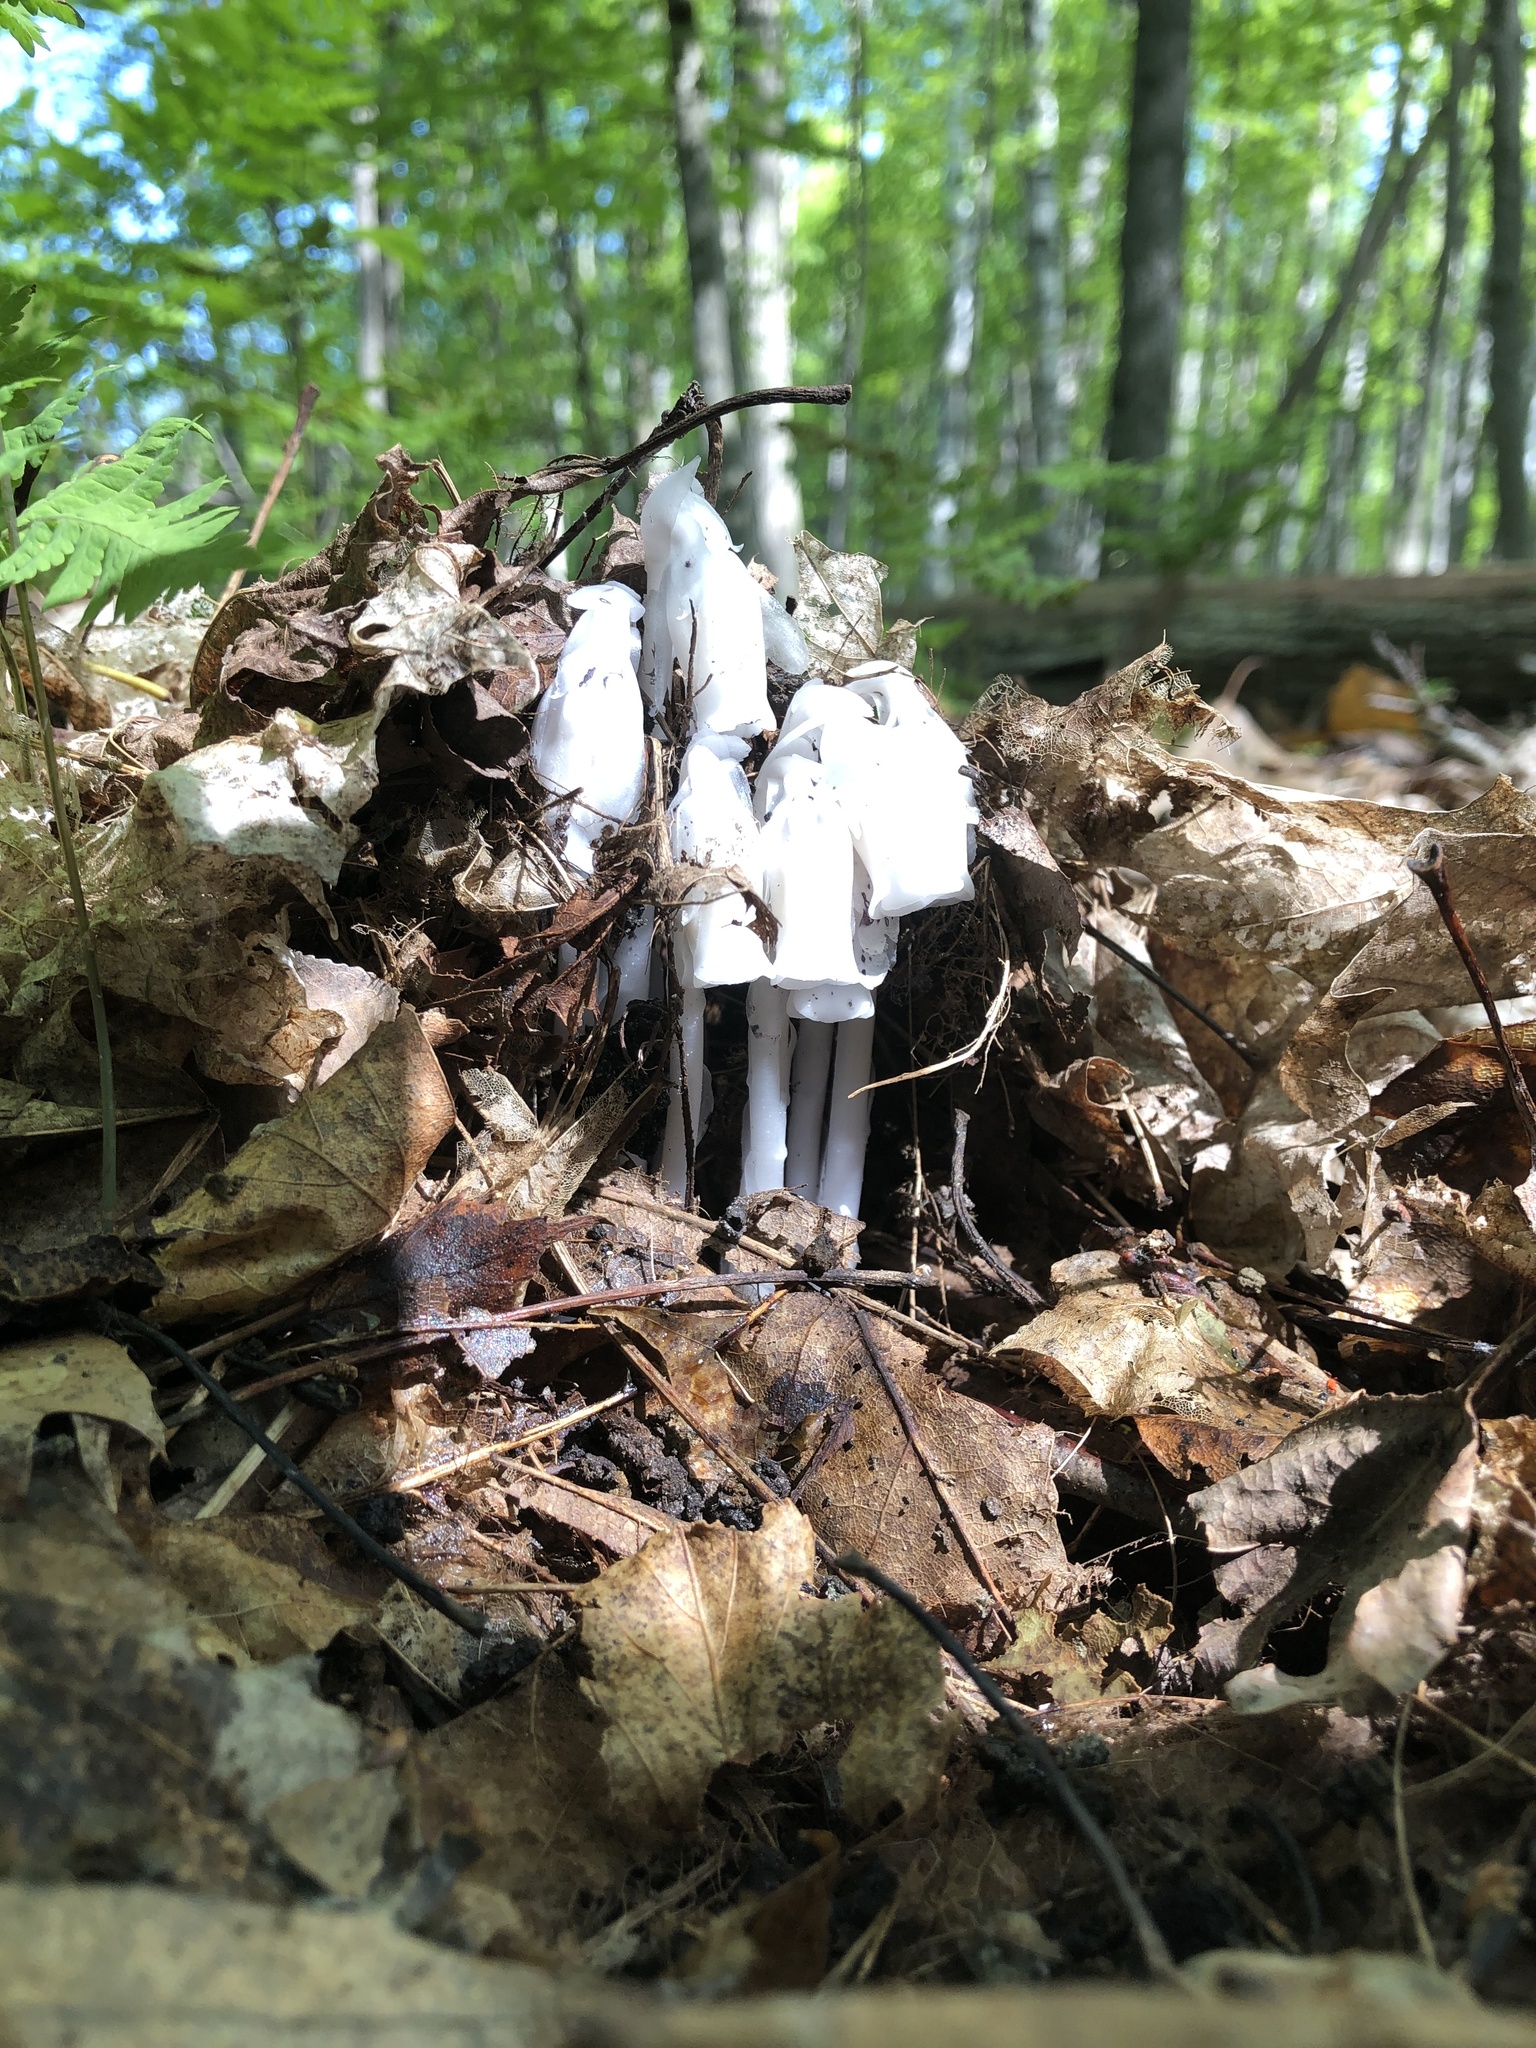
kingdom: Plantae
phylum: Tracheophyta
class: Magnoliopsida
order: Ericales
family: Ericaceae
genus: Monotropa
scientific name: Monotropa uniflora
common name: Convulsion root
